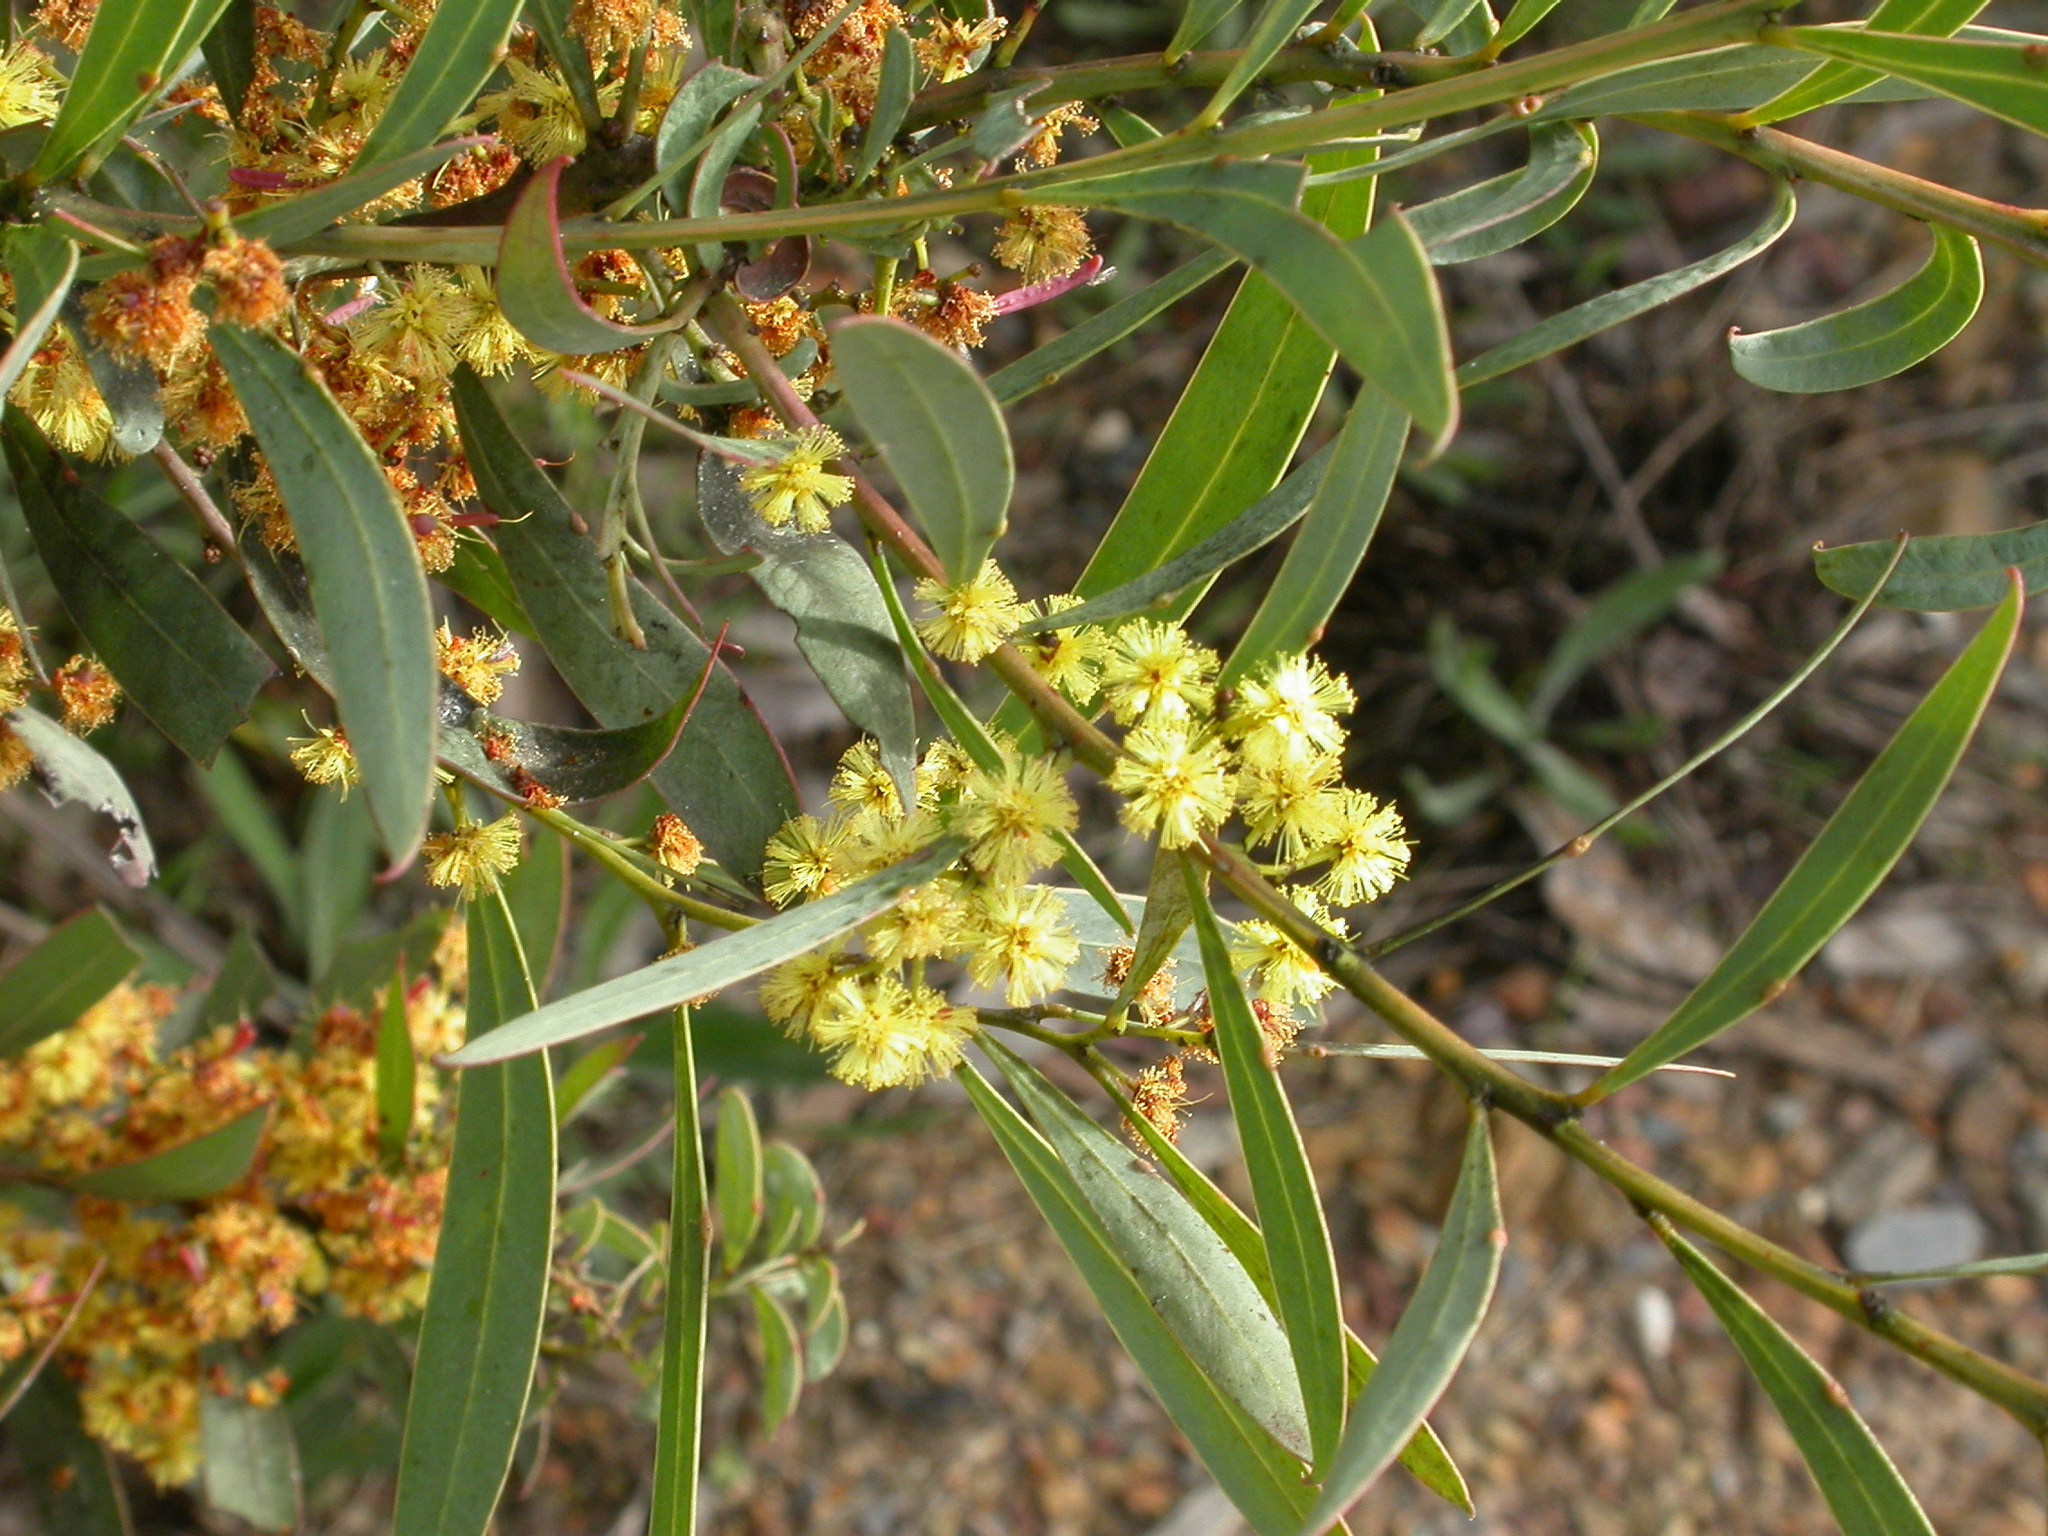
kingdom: Plantae
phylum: Tracheophyta
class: Magnoliopsida
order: Fabales
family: Fabaceae
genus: Acacia
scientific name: Acacia rubida
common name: Red leaf wattle
